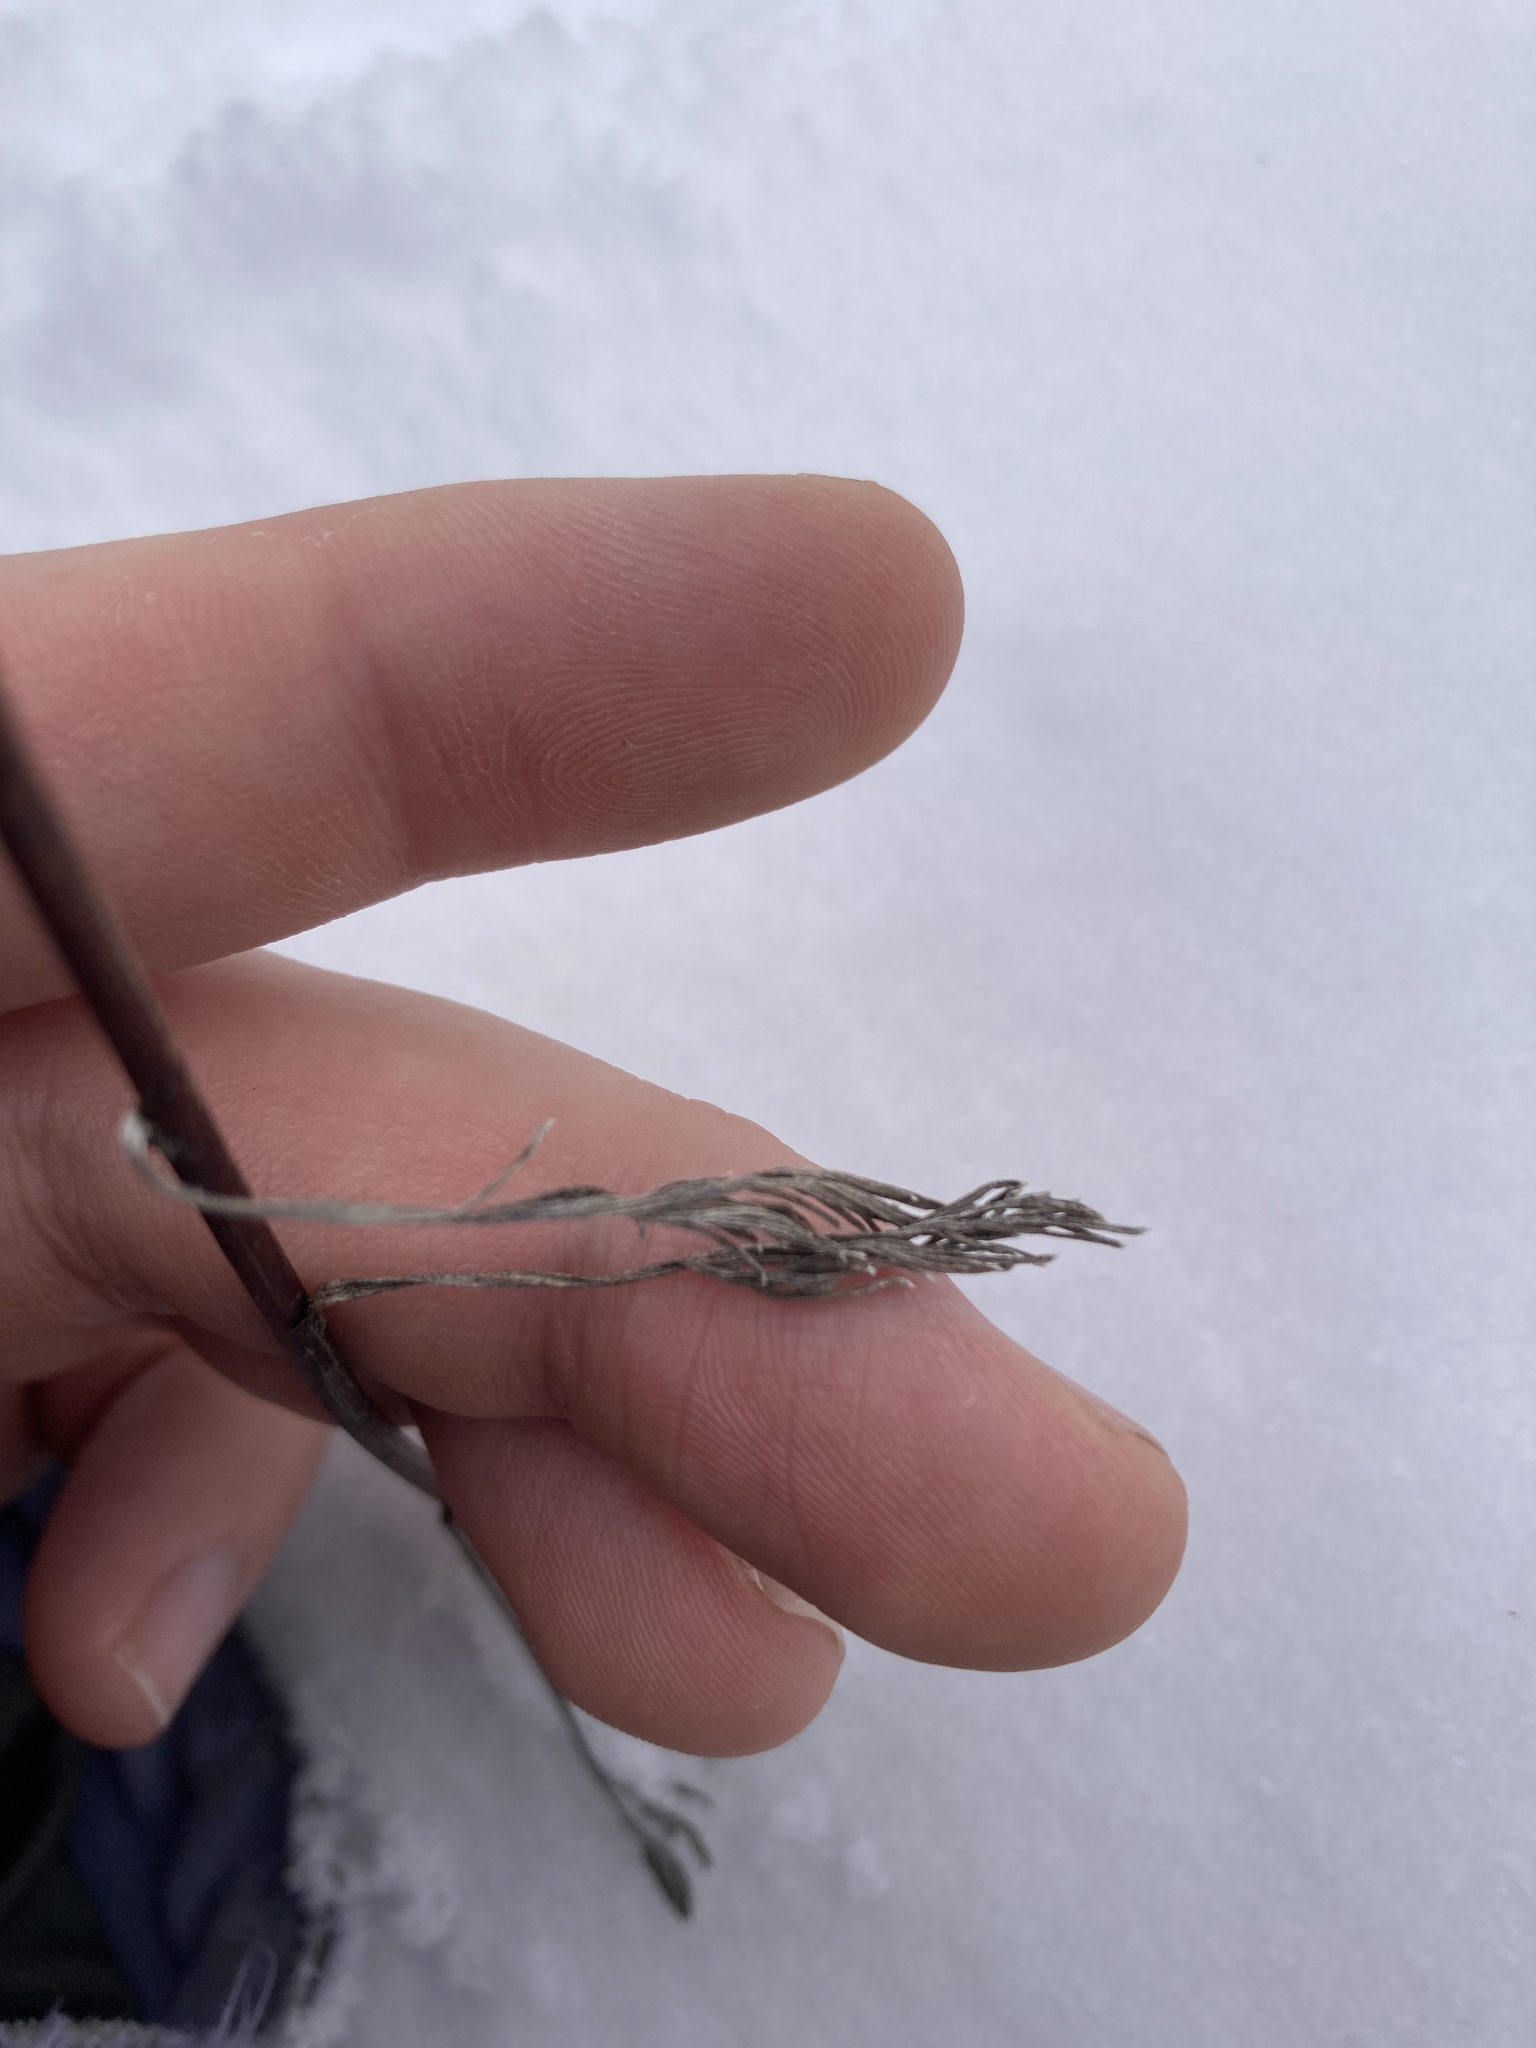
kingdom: Plantae
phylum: Tracheophyta
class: Magnoliopsida
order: Asterales
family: Asteraceae
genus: Artemisia
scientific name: Artemisia campestris
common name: Field wormwood
